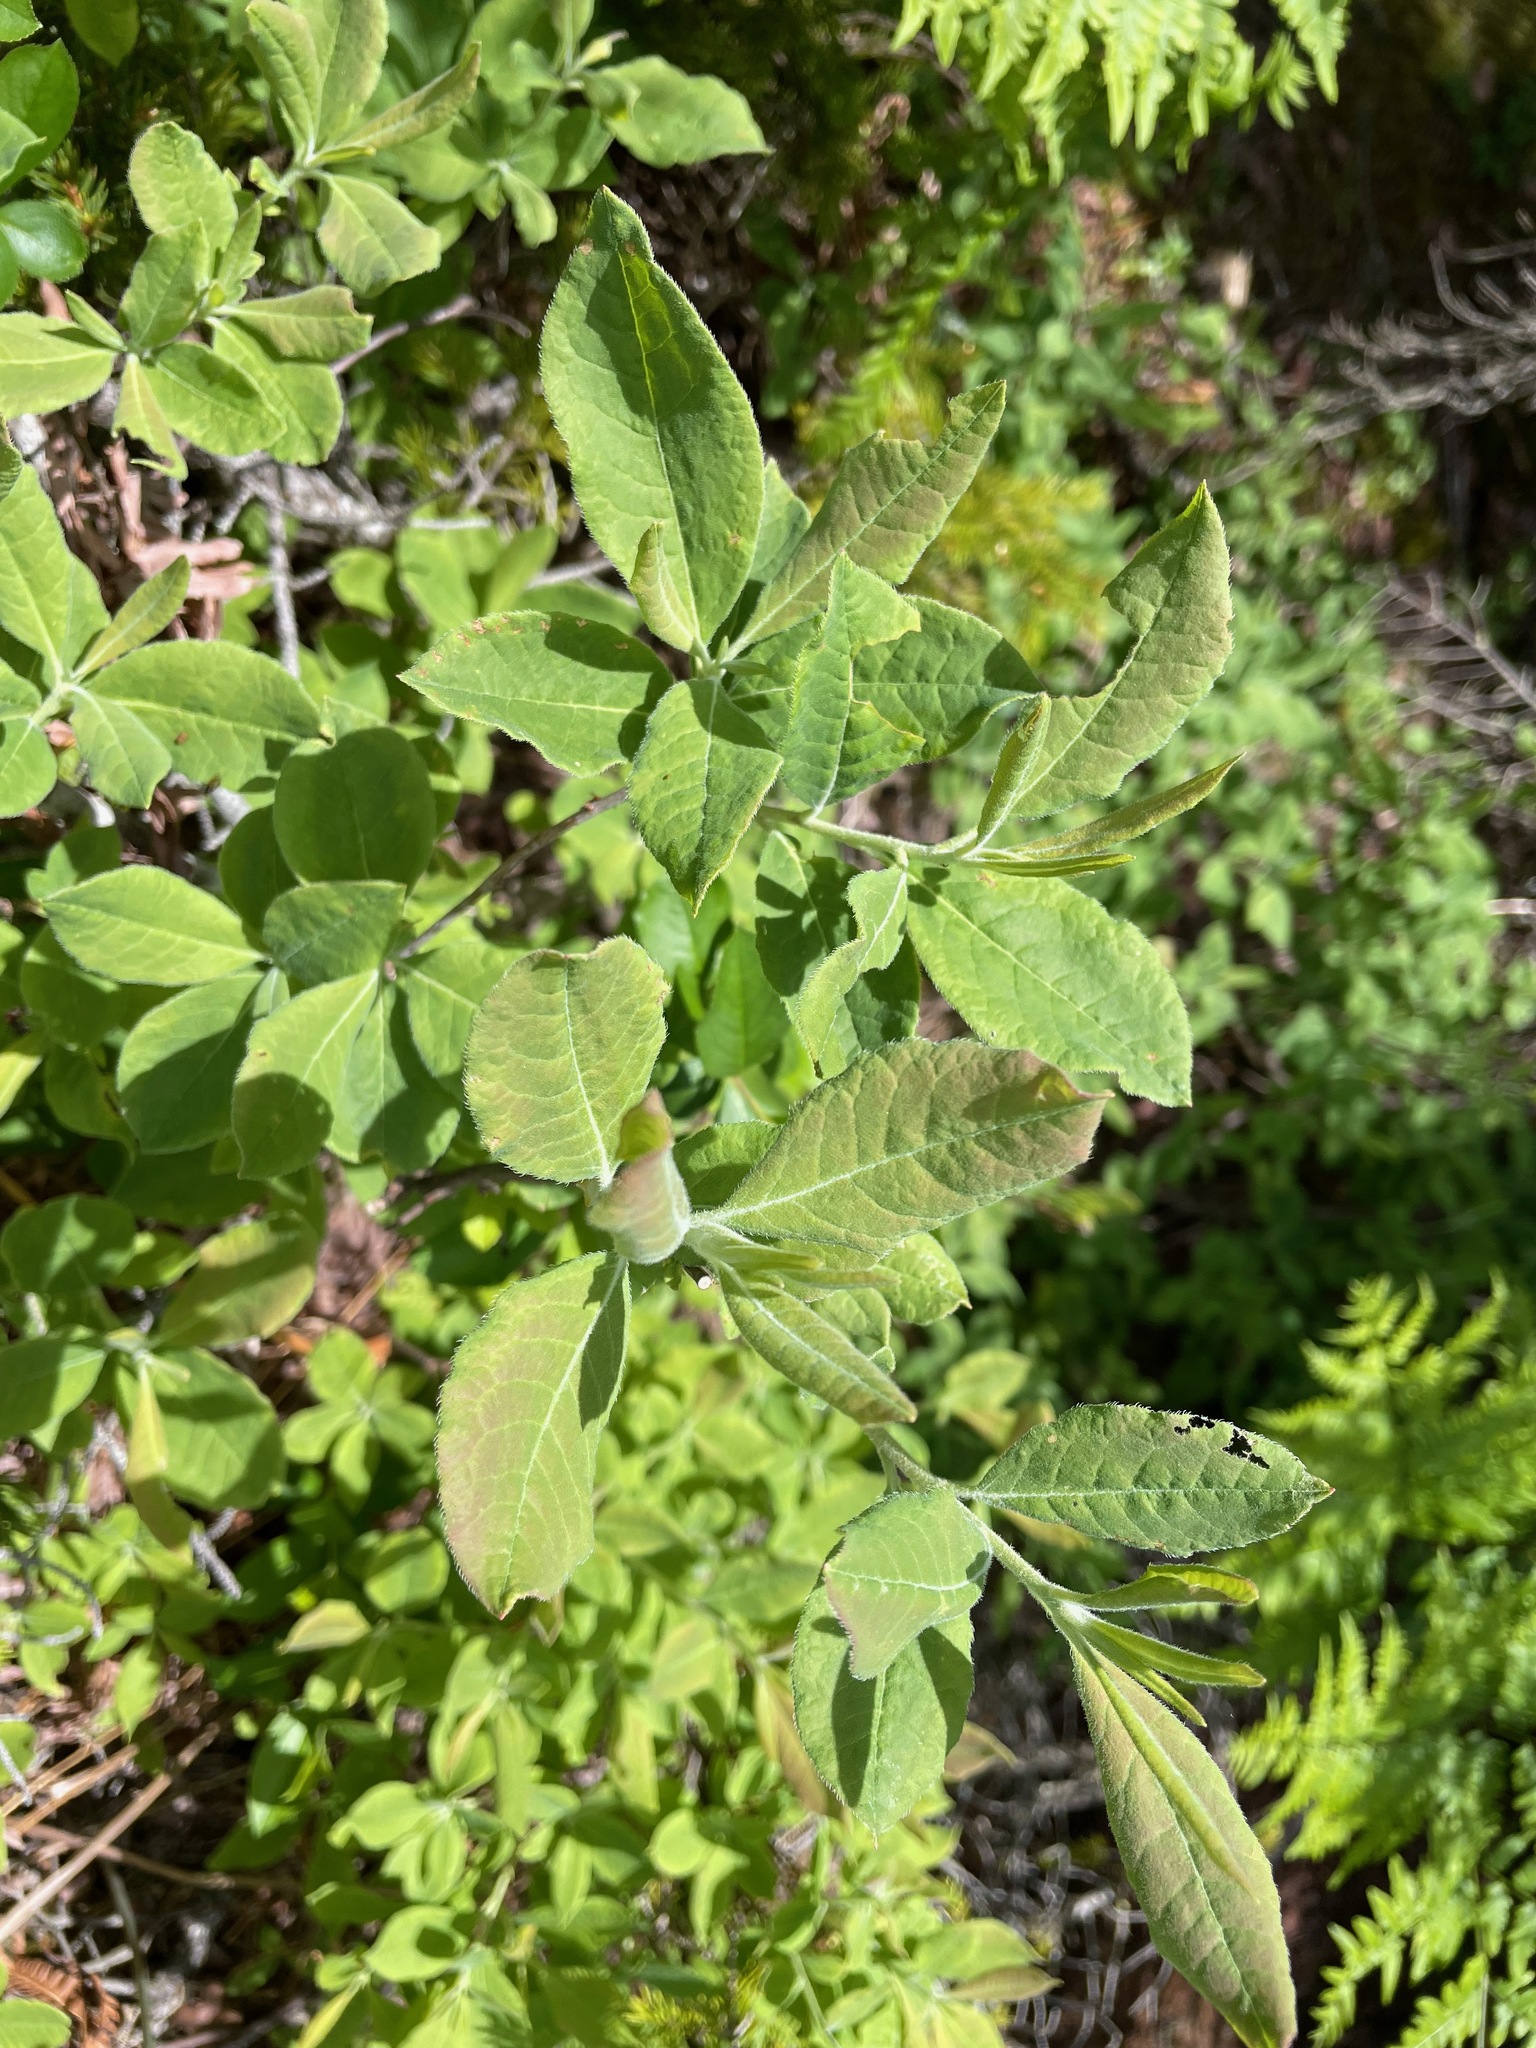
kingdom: Plantae
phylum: Tracheophyta
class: Magnoliopsida
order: Ericales
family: Ericaceae
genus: Rhododendron
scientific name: Rhododendron roseum
